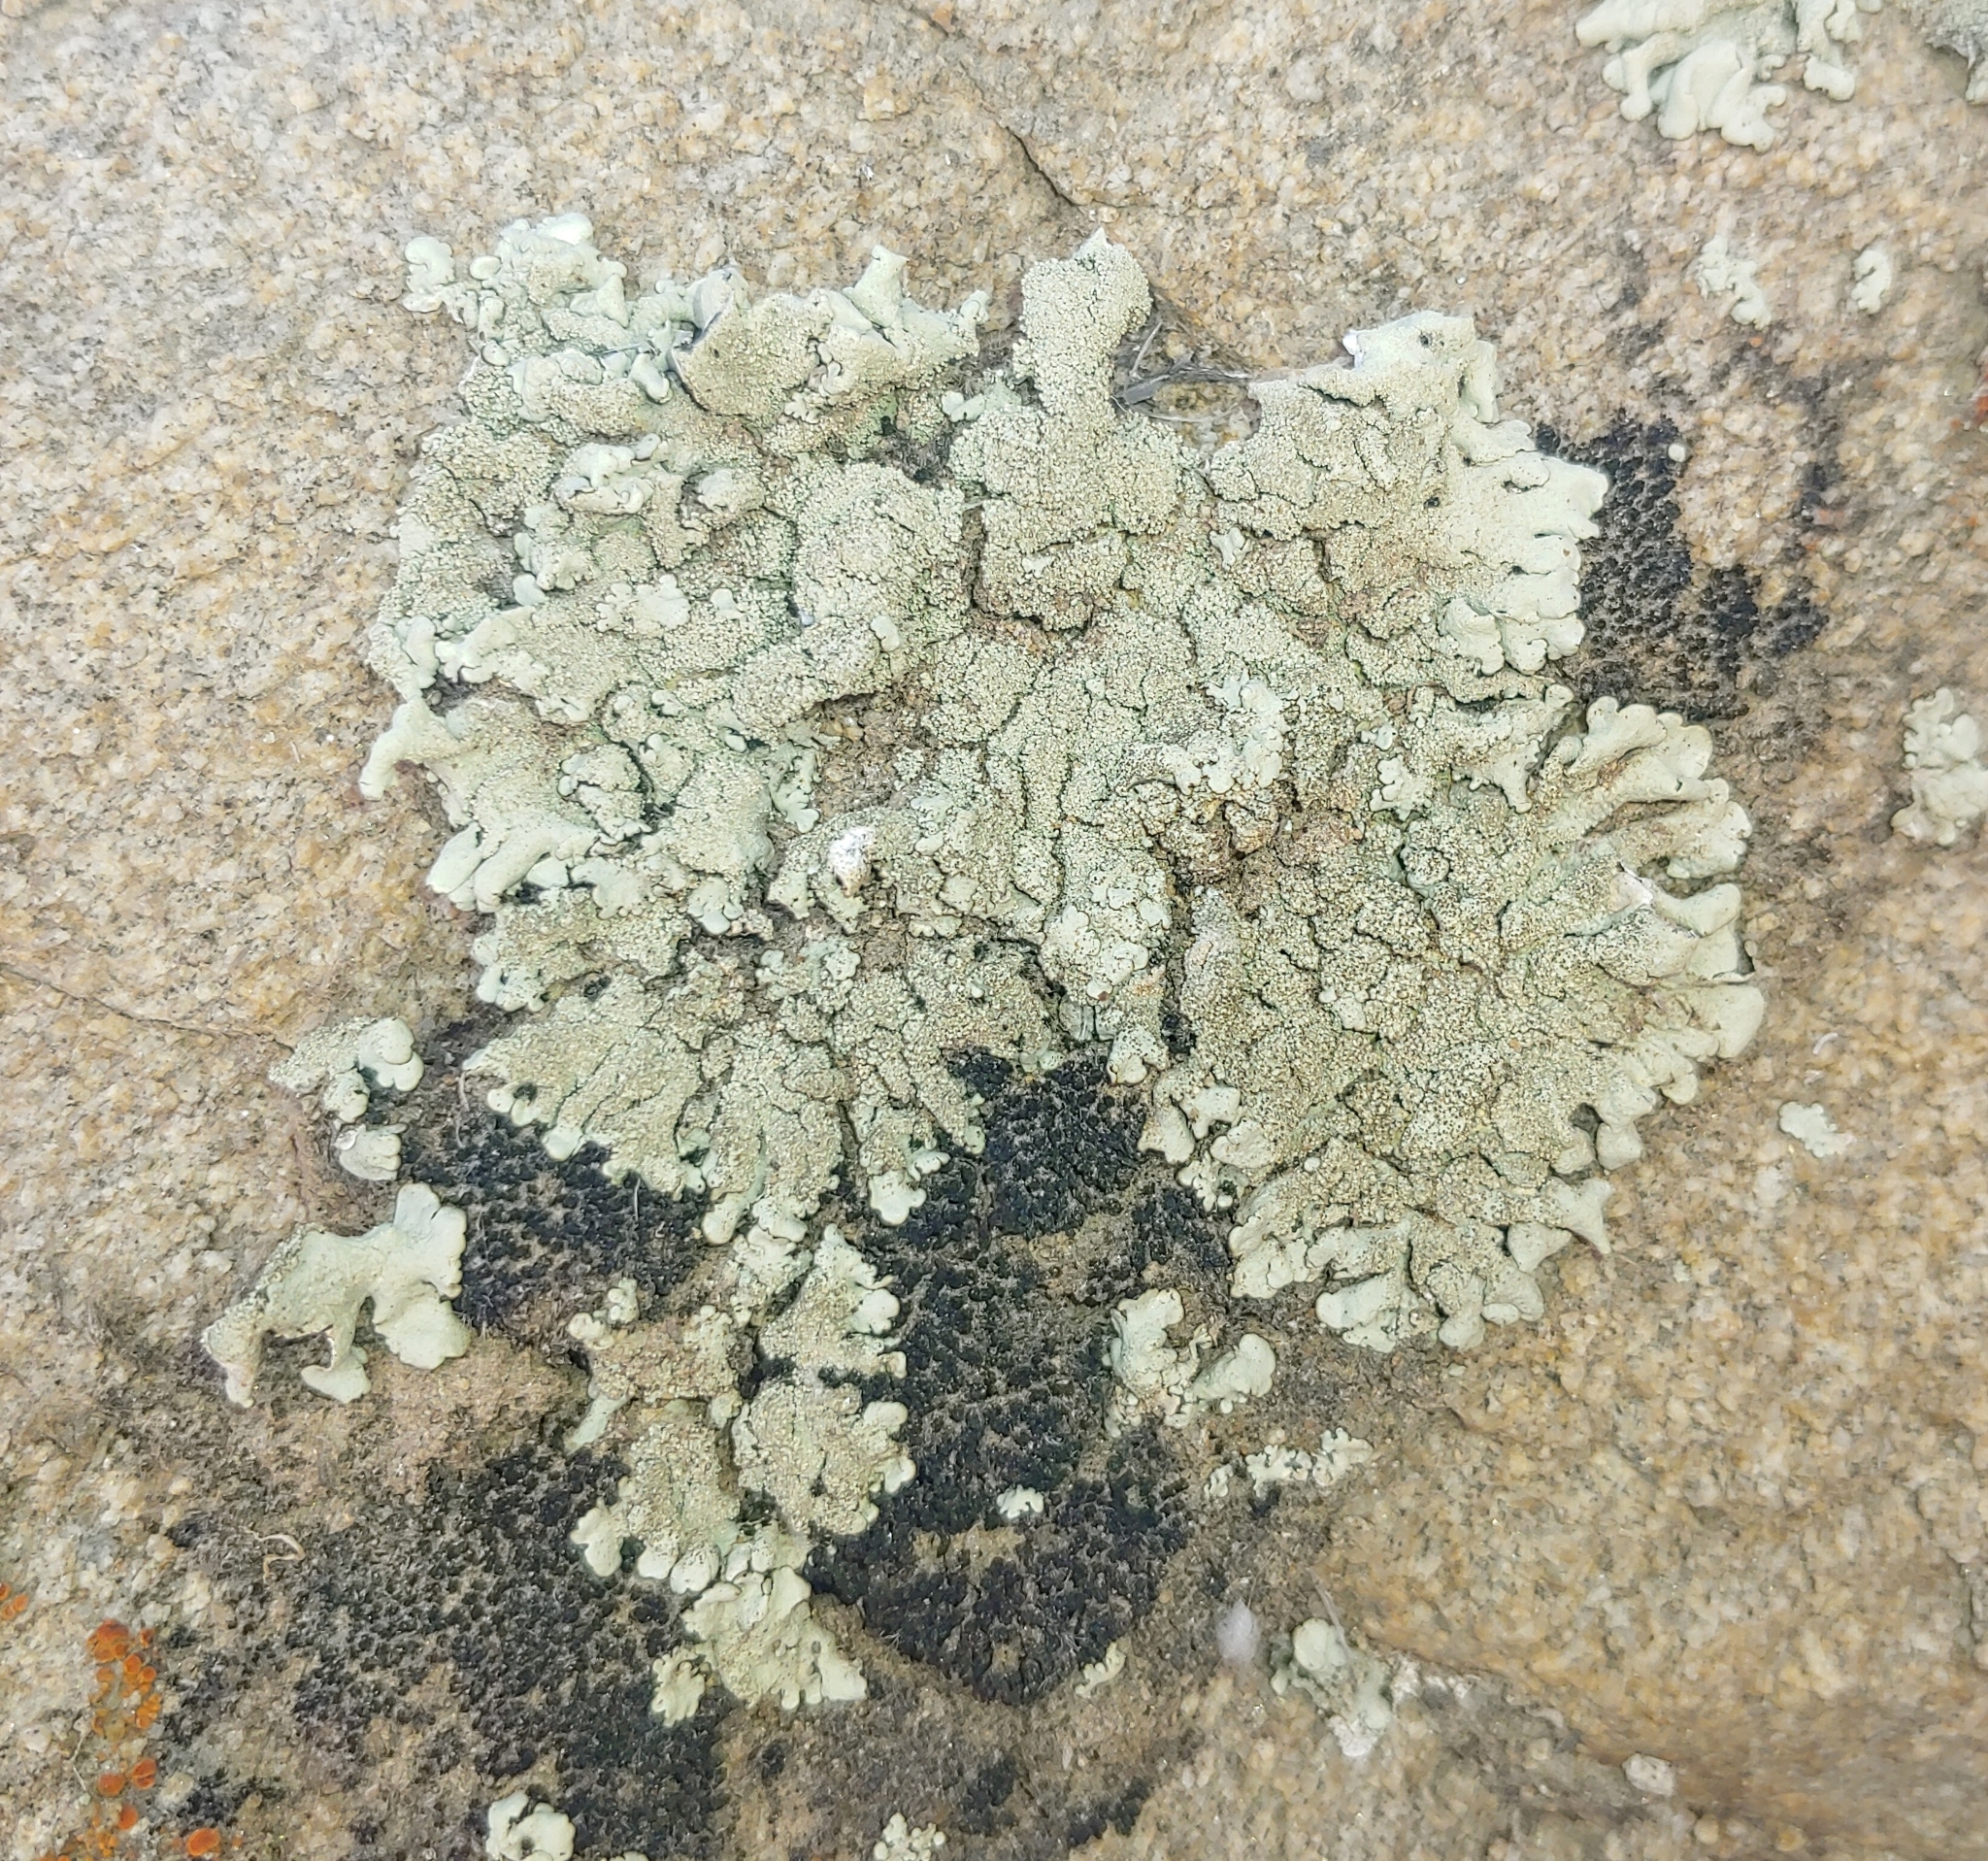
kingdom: Fungi
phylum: Ascomycota
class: Lecanoromycetes
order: Lecanorales
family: Parmeliaceae
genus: Xanthoparmelia
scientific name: Xanthoparmelia mexicana
